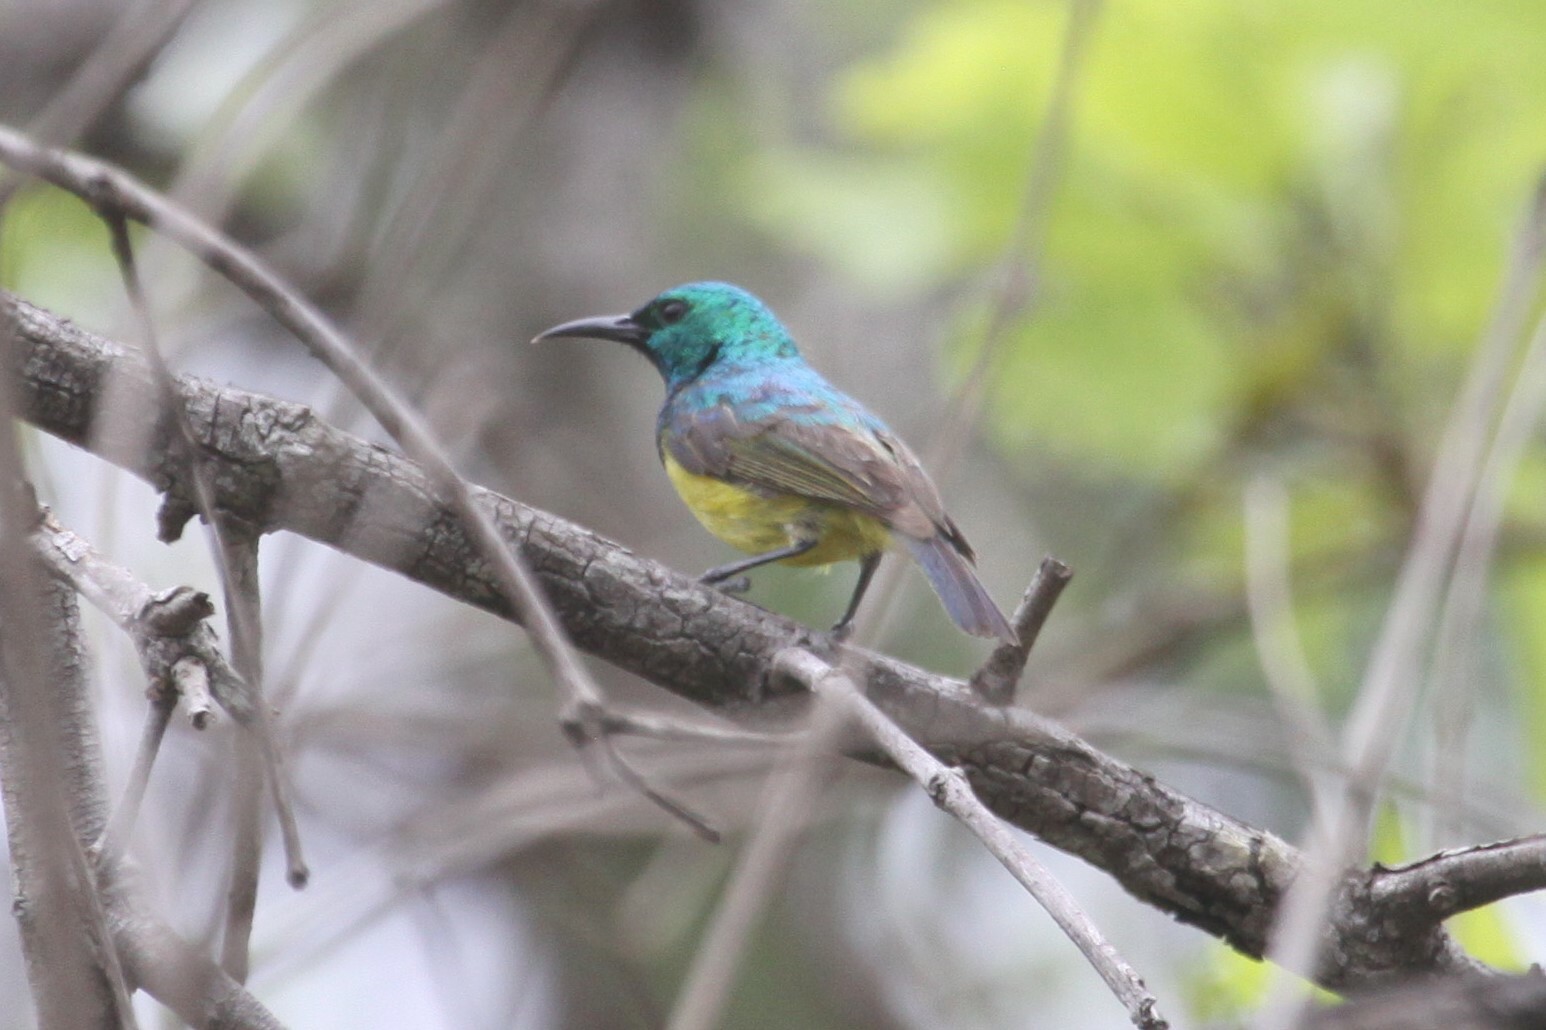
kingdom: Animalia
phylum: Chordata
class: Aves
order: Passeriformes
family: Nectariniidae
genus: Hedydipna
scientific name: Hedydipna collaris
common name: Collared sunbird
